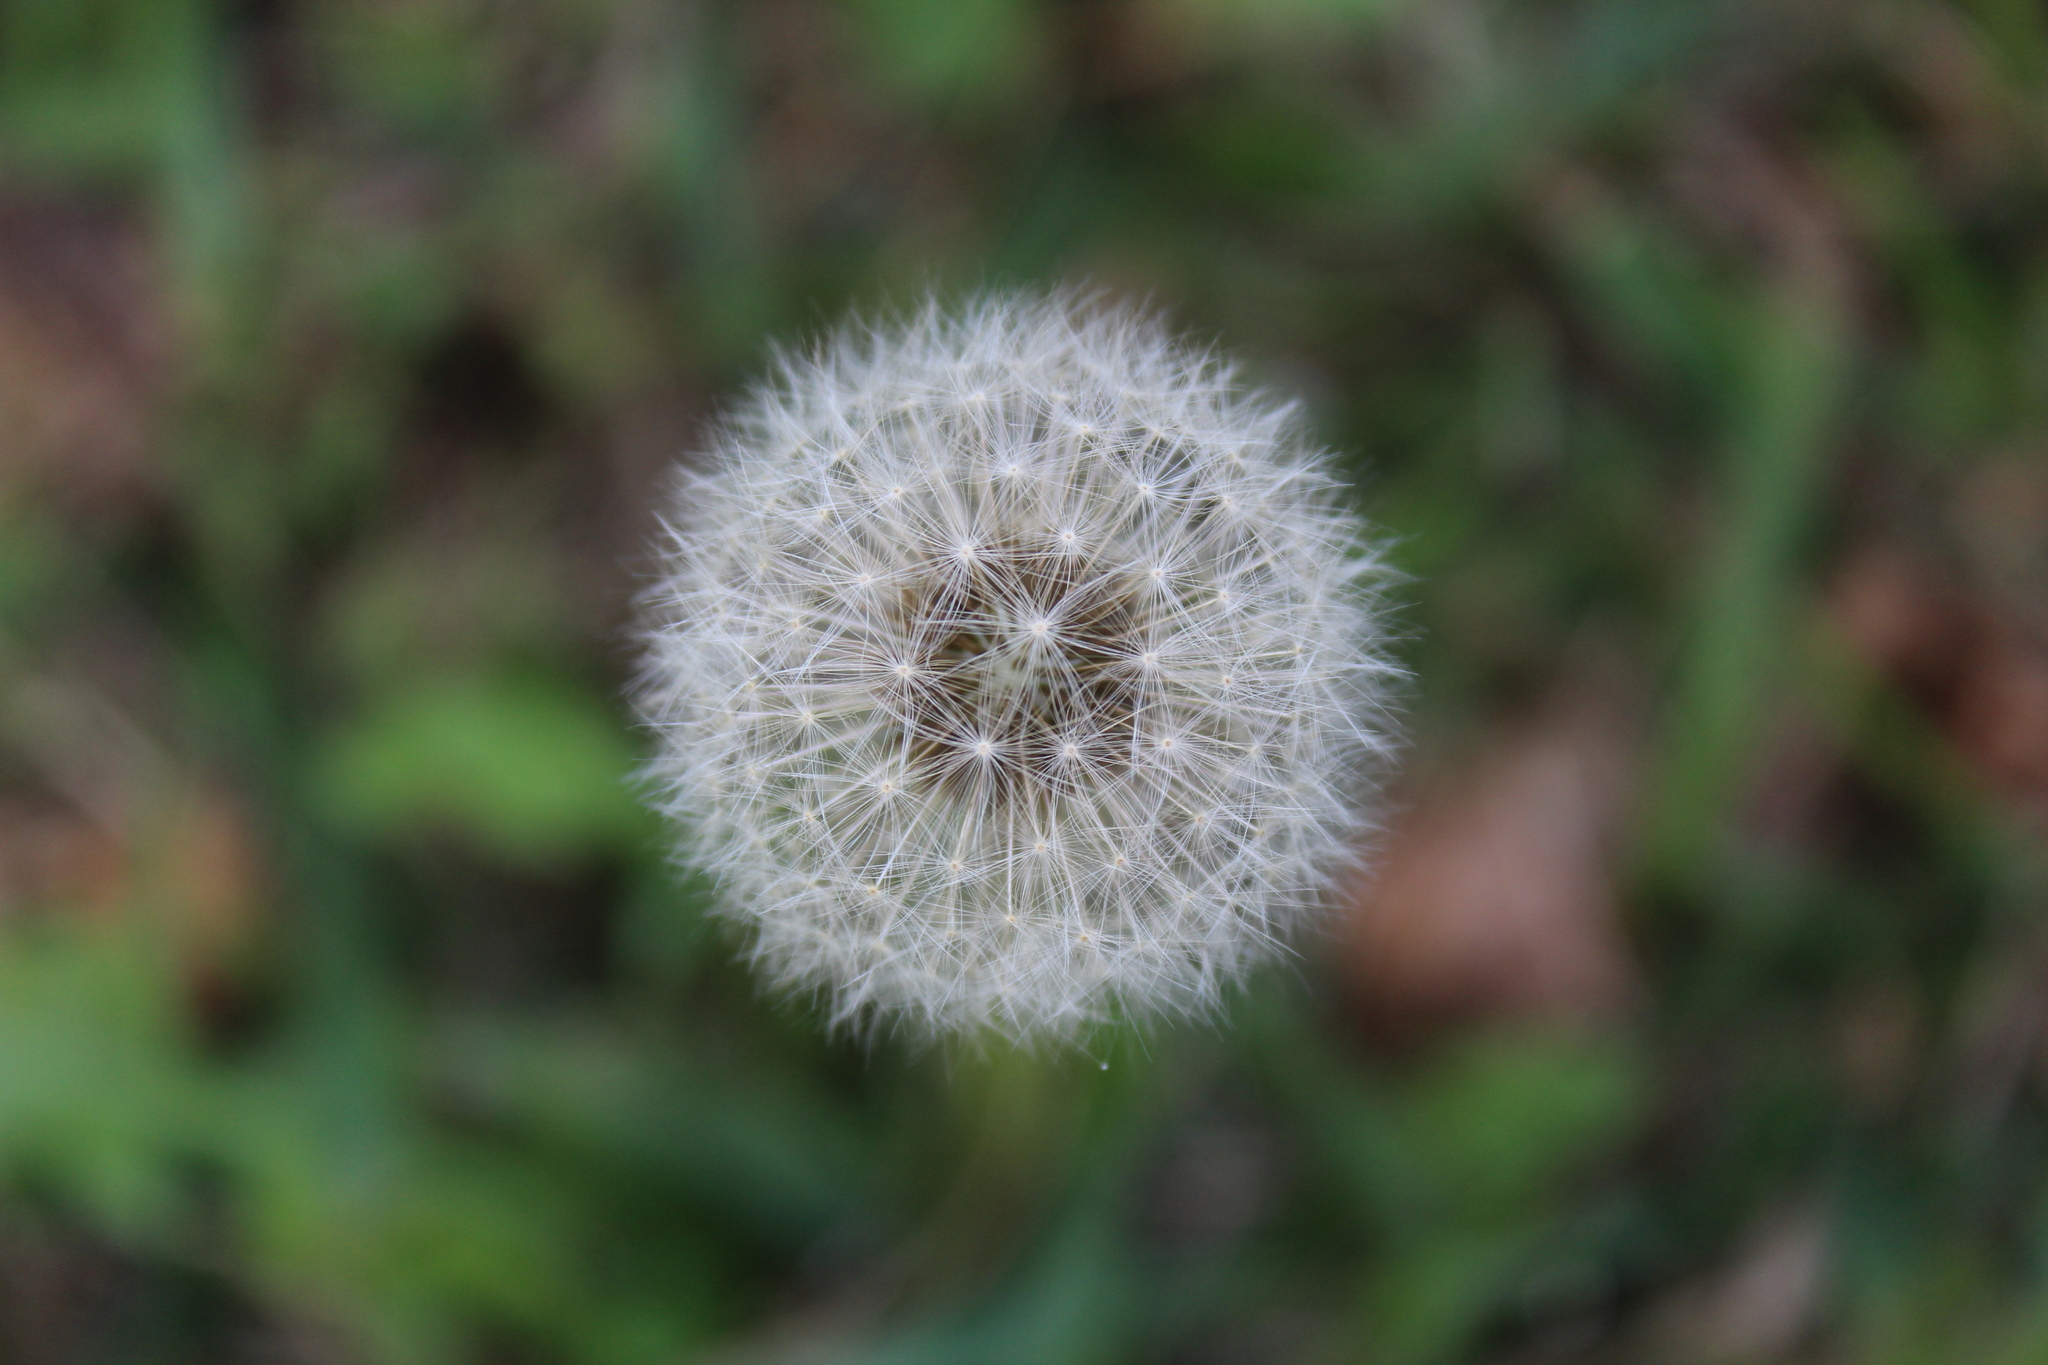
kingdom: Plantae
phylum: Tracheophyta
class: Magnoliopsida
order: Asterales
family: Asteraceae
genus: Taraxacum
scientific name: Taraxacum officinale
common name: Common dandelion
